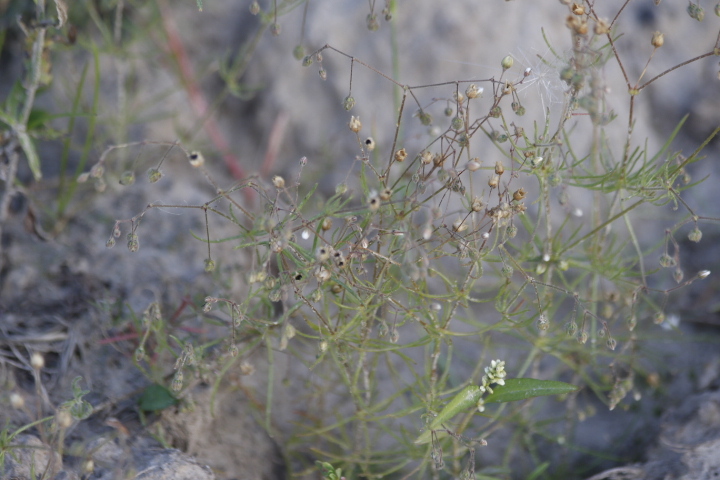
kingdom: Plantae
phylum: Tracheophyta
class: Magnoliopsida
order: Caryophyllales
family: Caryophyllaceae
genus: Spergula
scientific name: Spergula arvensis
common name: Corn spurrey
